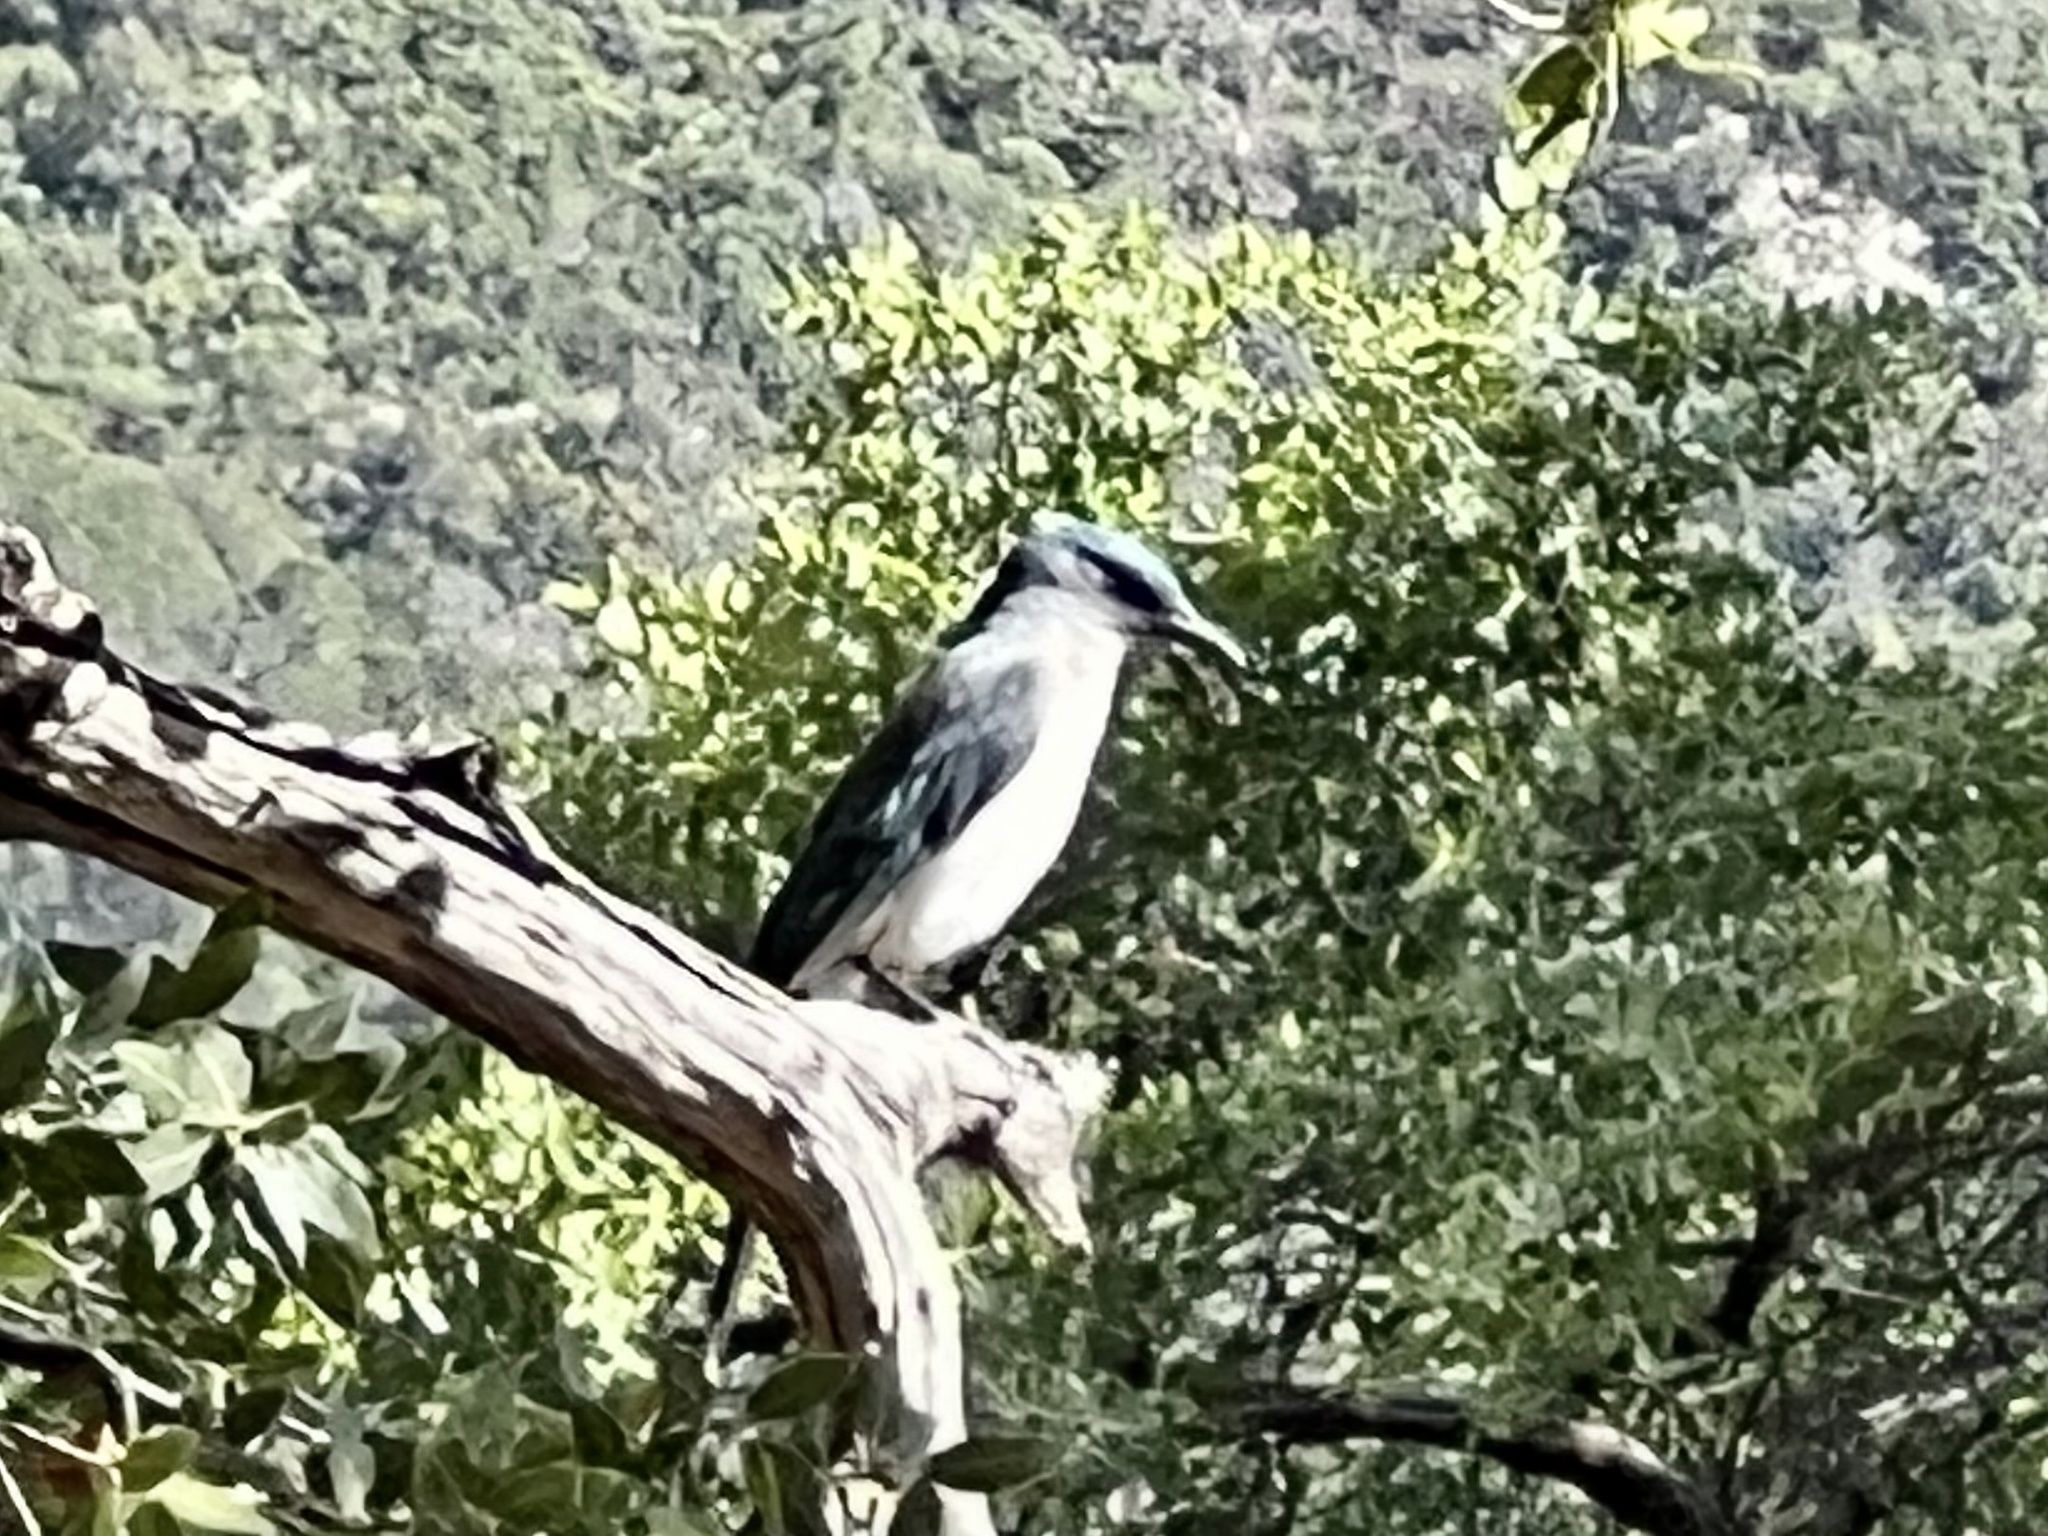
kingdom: Animalia
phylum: Chordata
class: Aves
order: Passeriformes
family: Corvidae
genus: Aphelocoma
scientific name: Aphelocoma wollweberi
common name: Mexican jay
